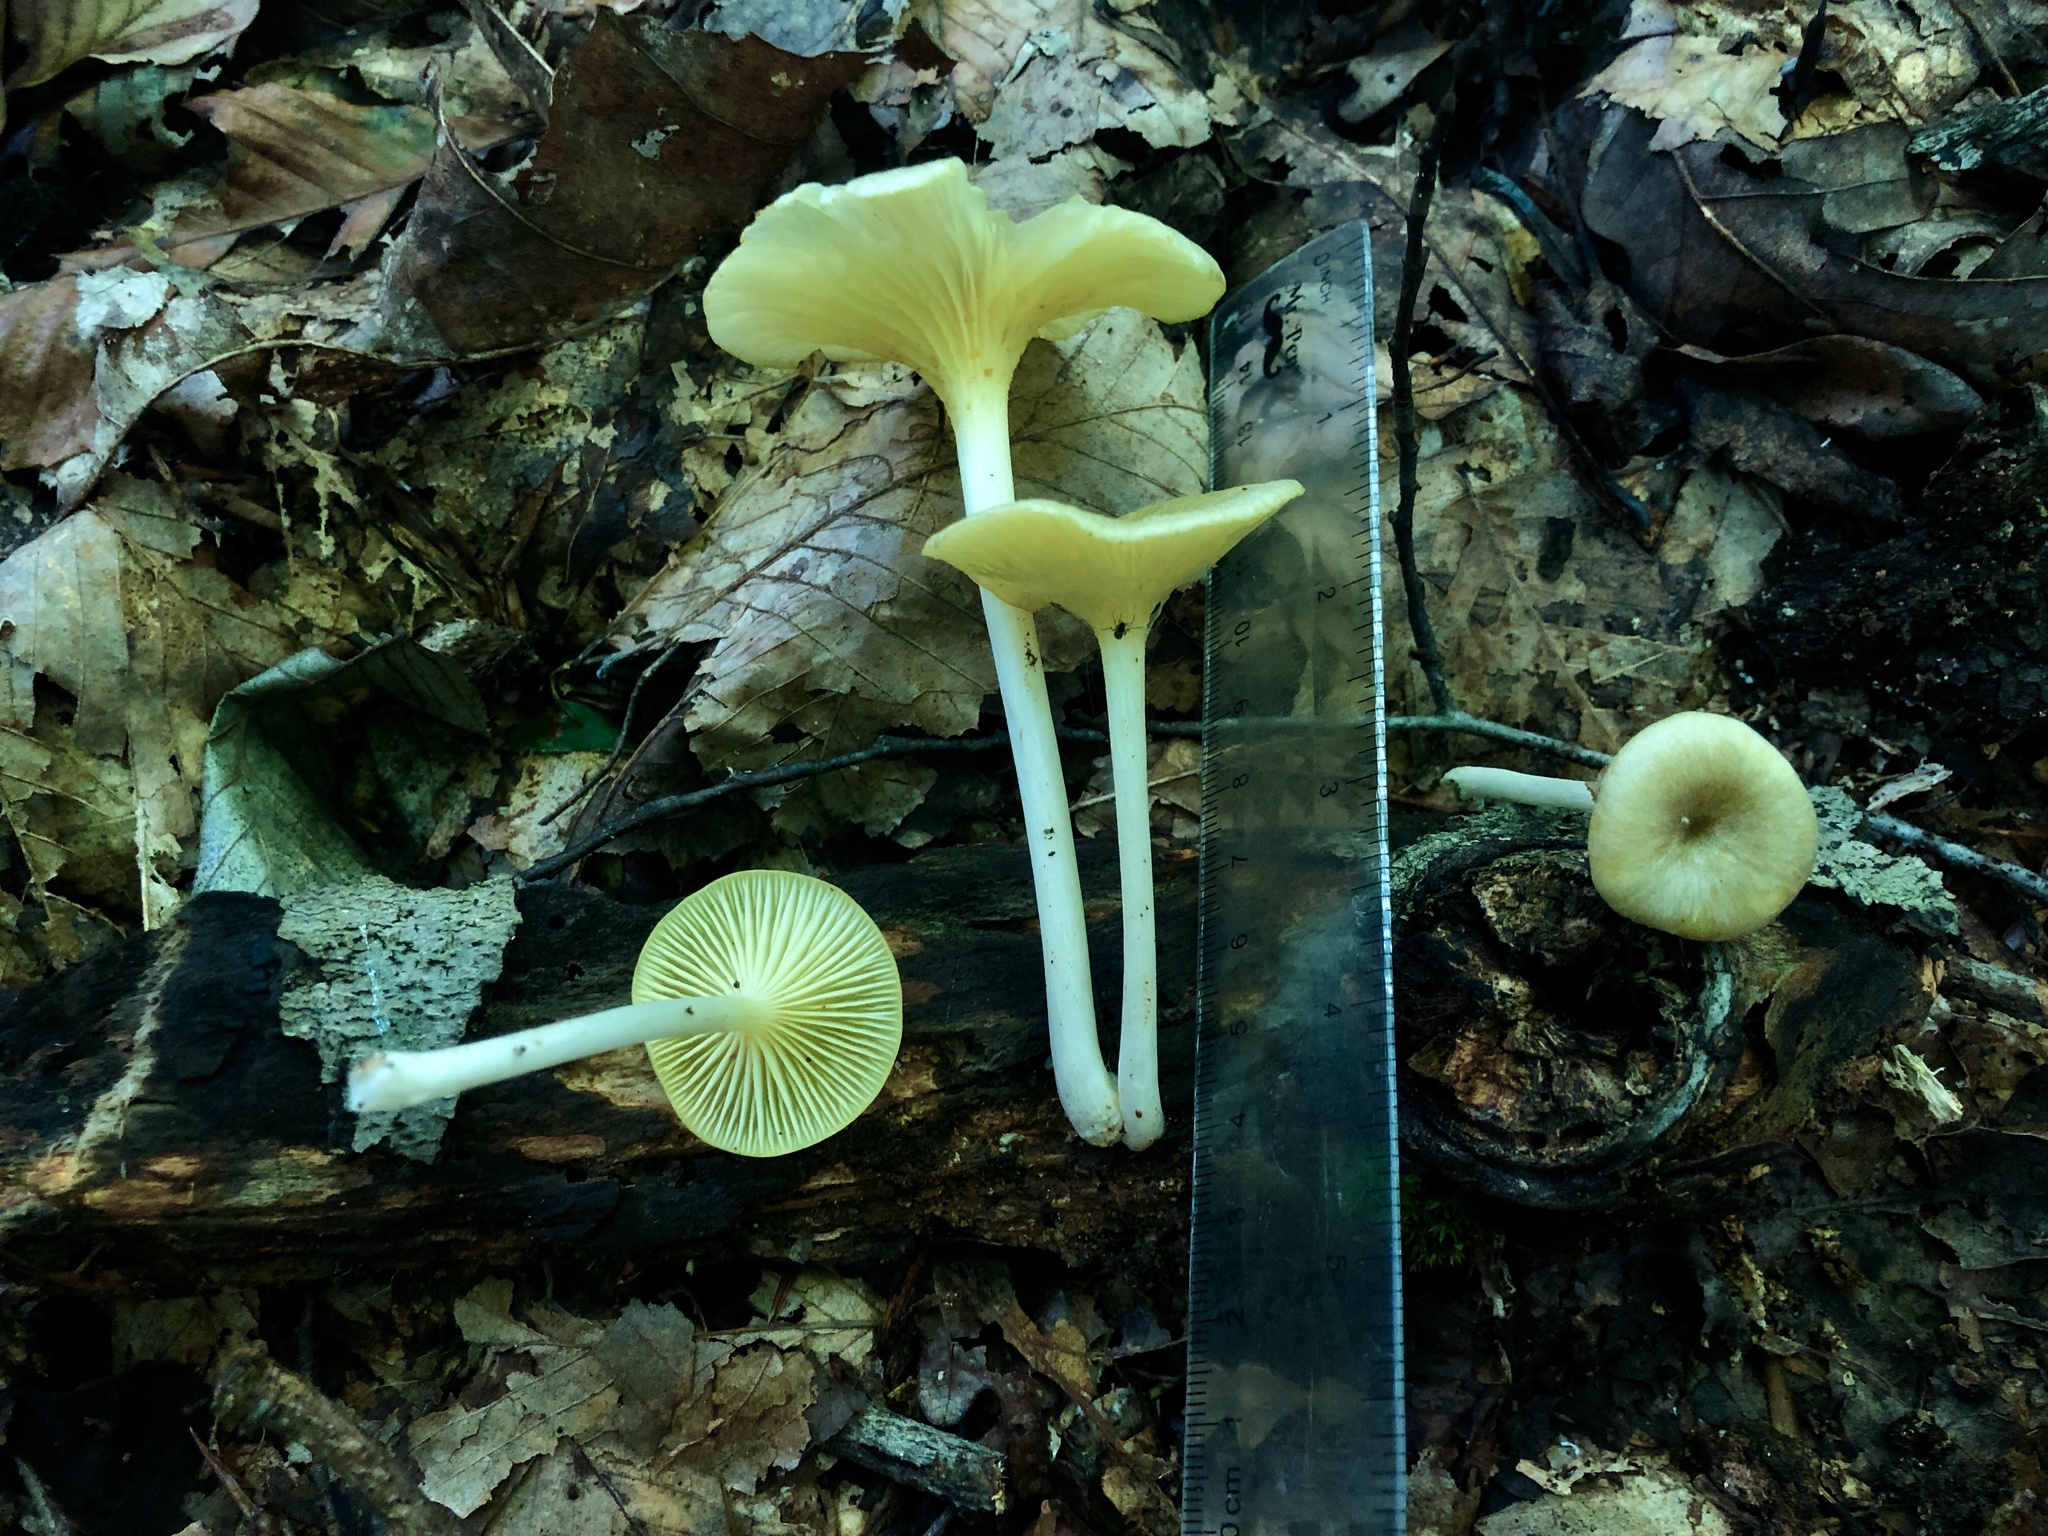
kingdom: Fungi
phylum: Basidiomycota
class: Agaricomycetes
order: Agaricales
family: Marasmiaceae
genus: Gerronema
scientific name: Gerronema strombodes
